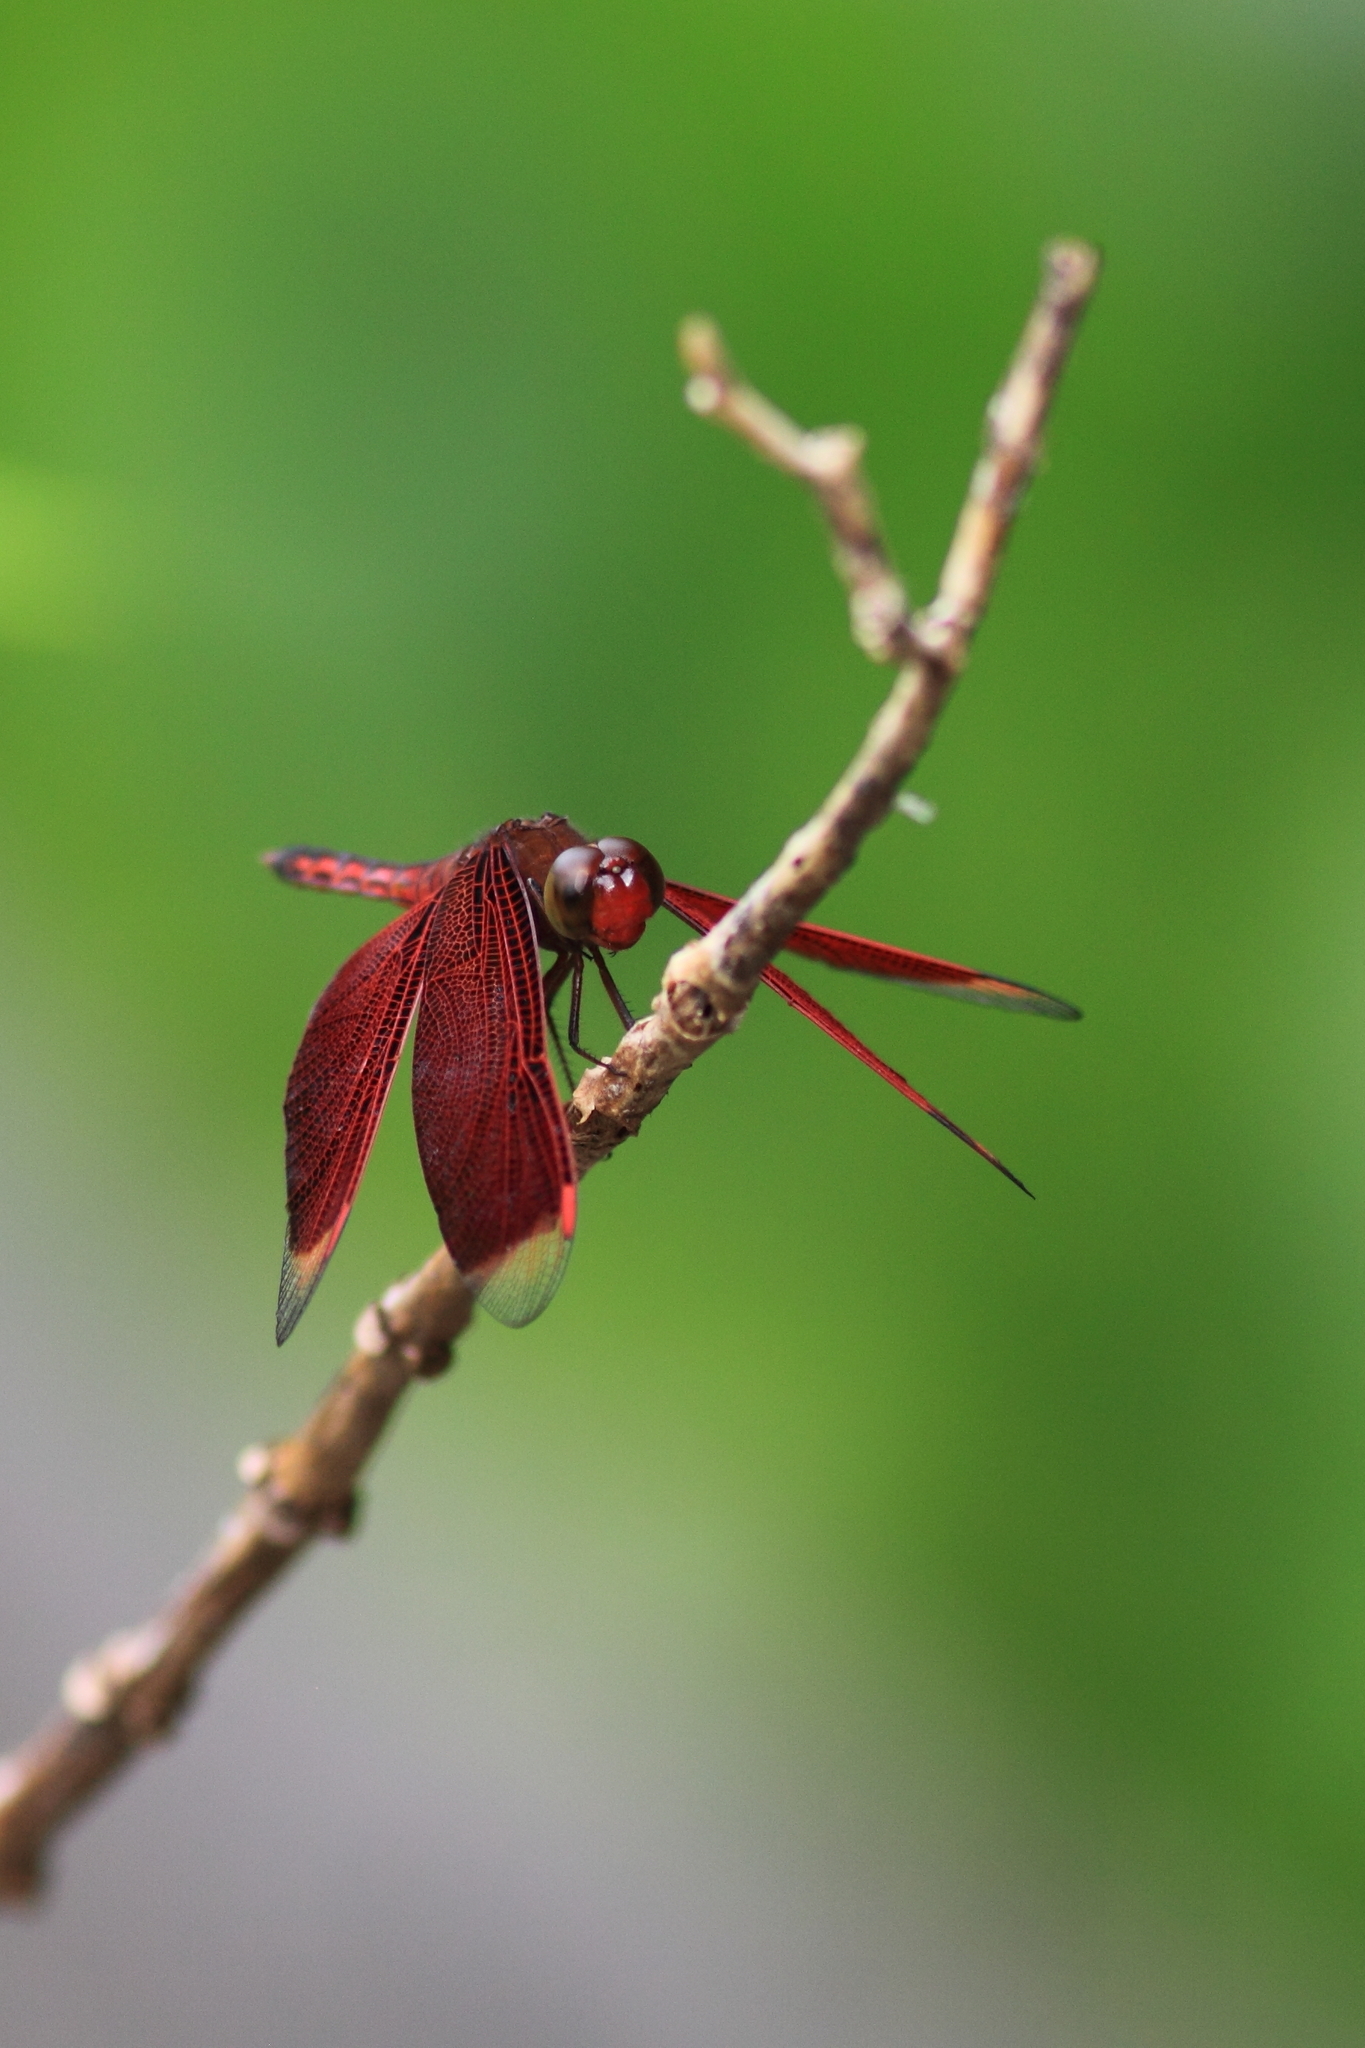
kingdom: Animalia
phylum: Arthropoda
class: Insecta
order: Odonata
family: Libellulidae
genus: Neurothemis
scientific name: Neurothemis ramburii
